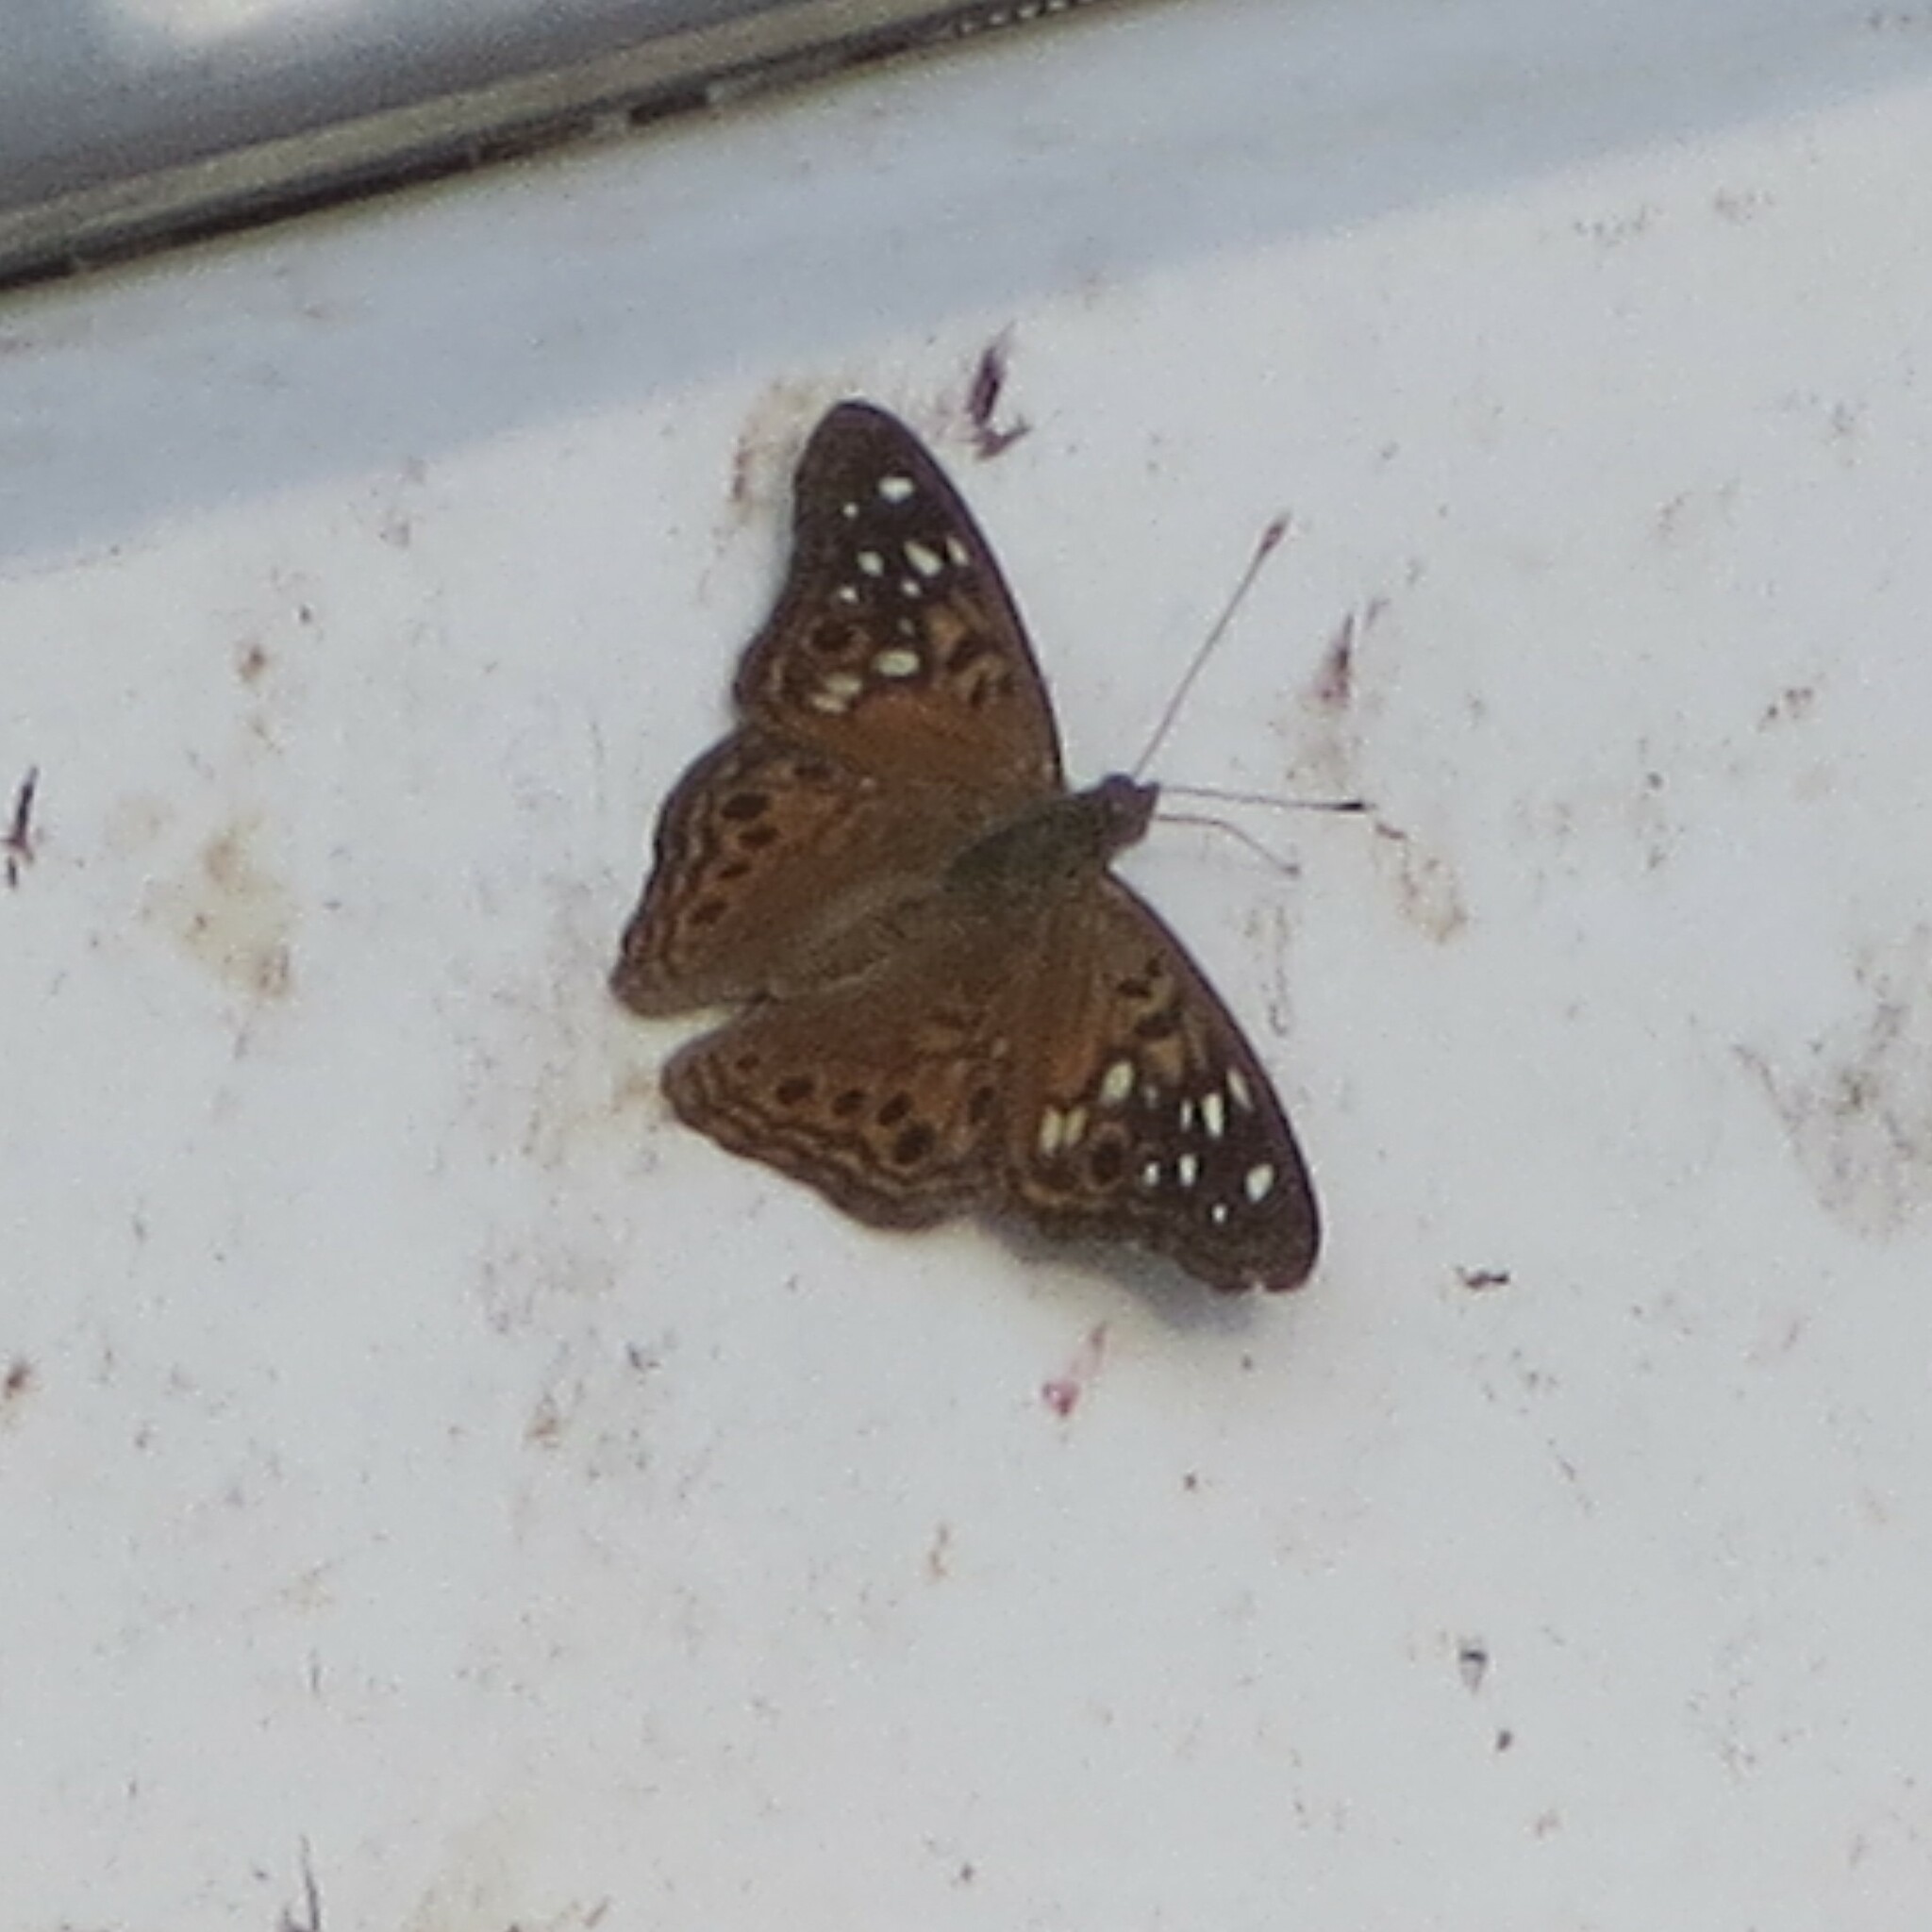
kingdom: Animalia
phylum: Arthropoda
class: Insecta
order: Lepidoptera
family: Nymphalidae
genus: Asterocampa
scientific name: Asterocampa celtis
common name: Hackberry emperor
